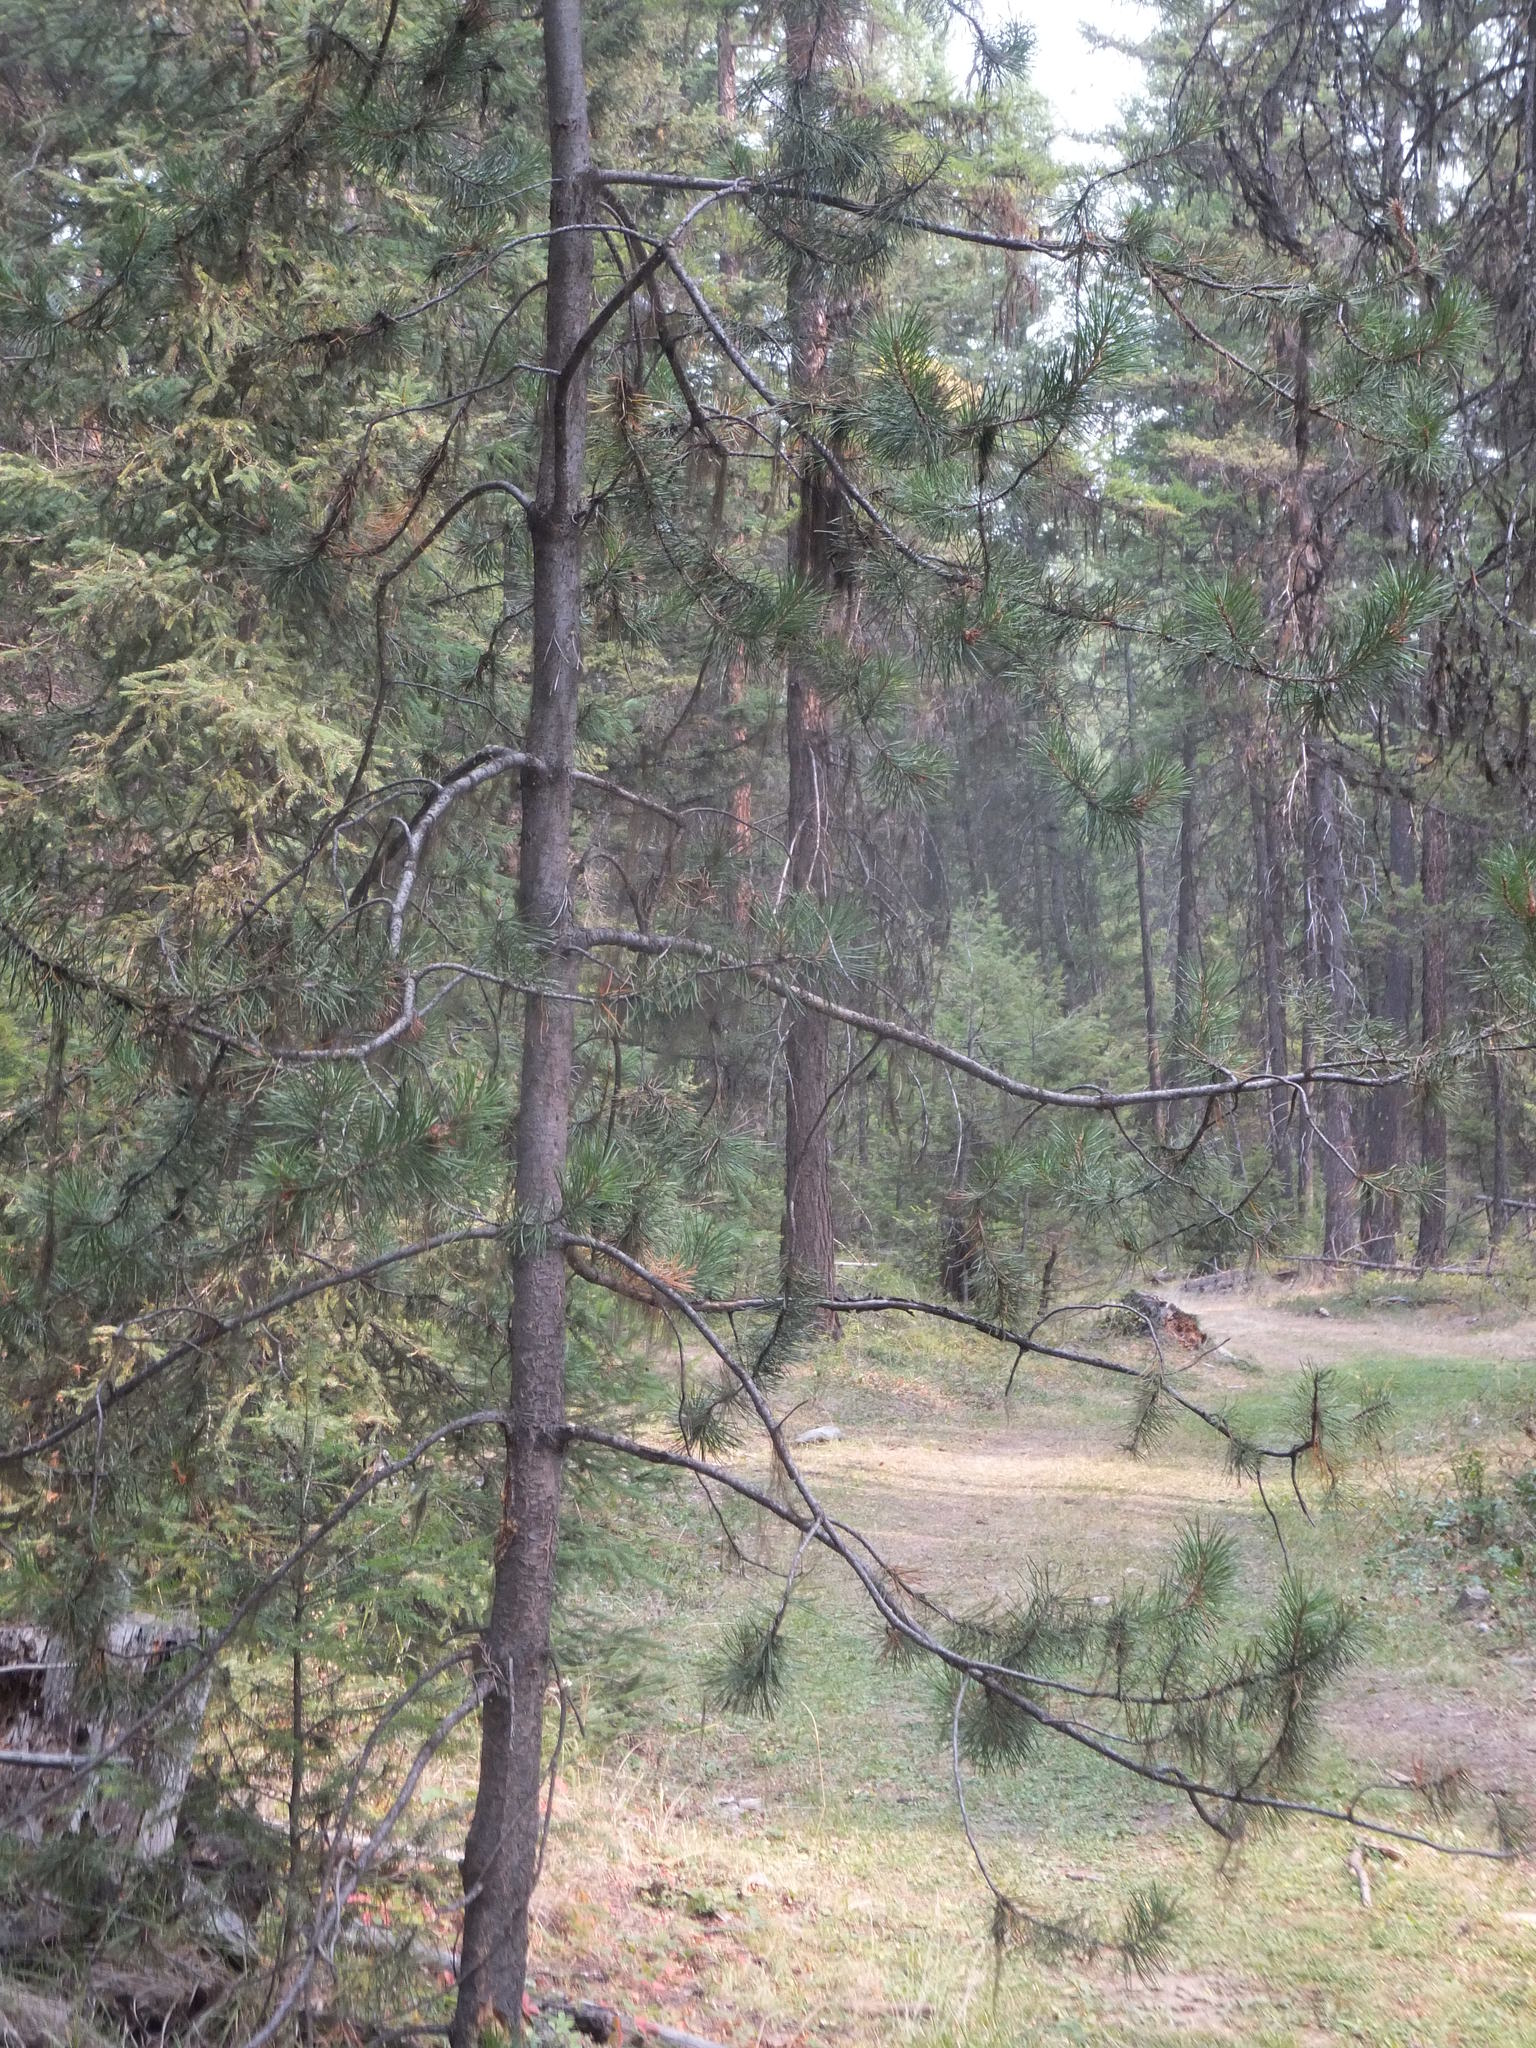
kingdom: Plantae
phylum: Tracheophyta
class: Pinopsida
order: Pinales
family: Pinaceae
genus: Pinus
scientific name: Pinus contorta
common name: Lodgepole pine
